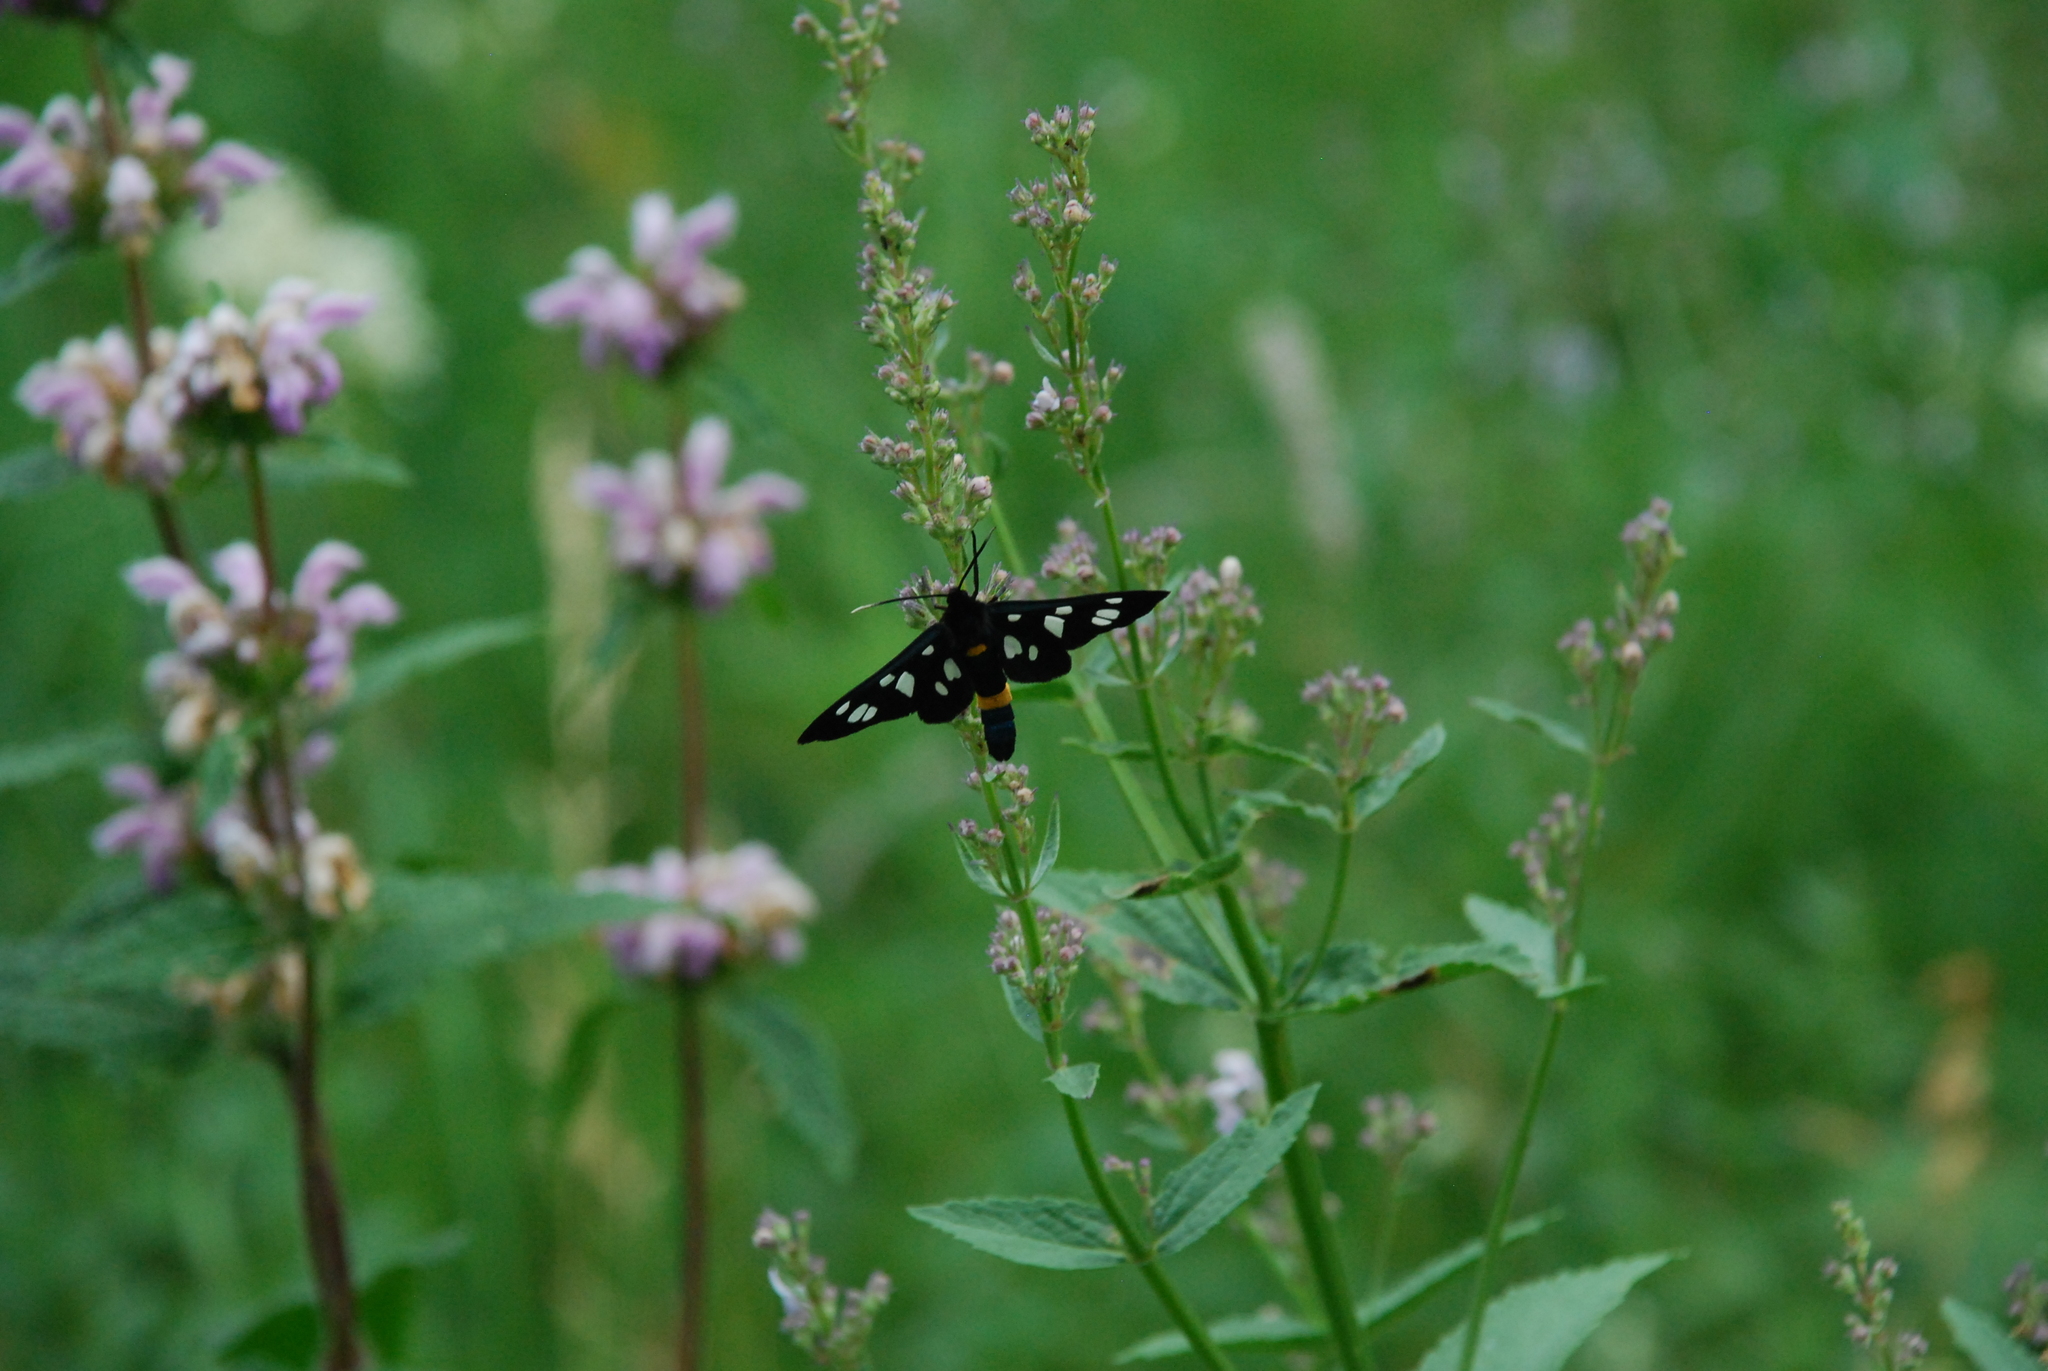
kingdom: Animalia
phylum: Arthropoda
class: Insecta
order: Lepidoptera
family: Erebidae
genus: Amata
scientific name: Amata nigricornis
